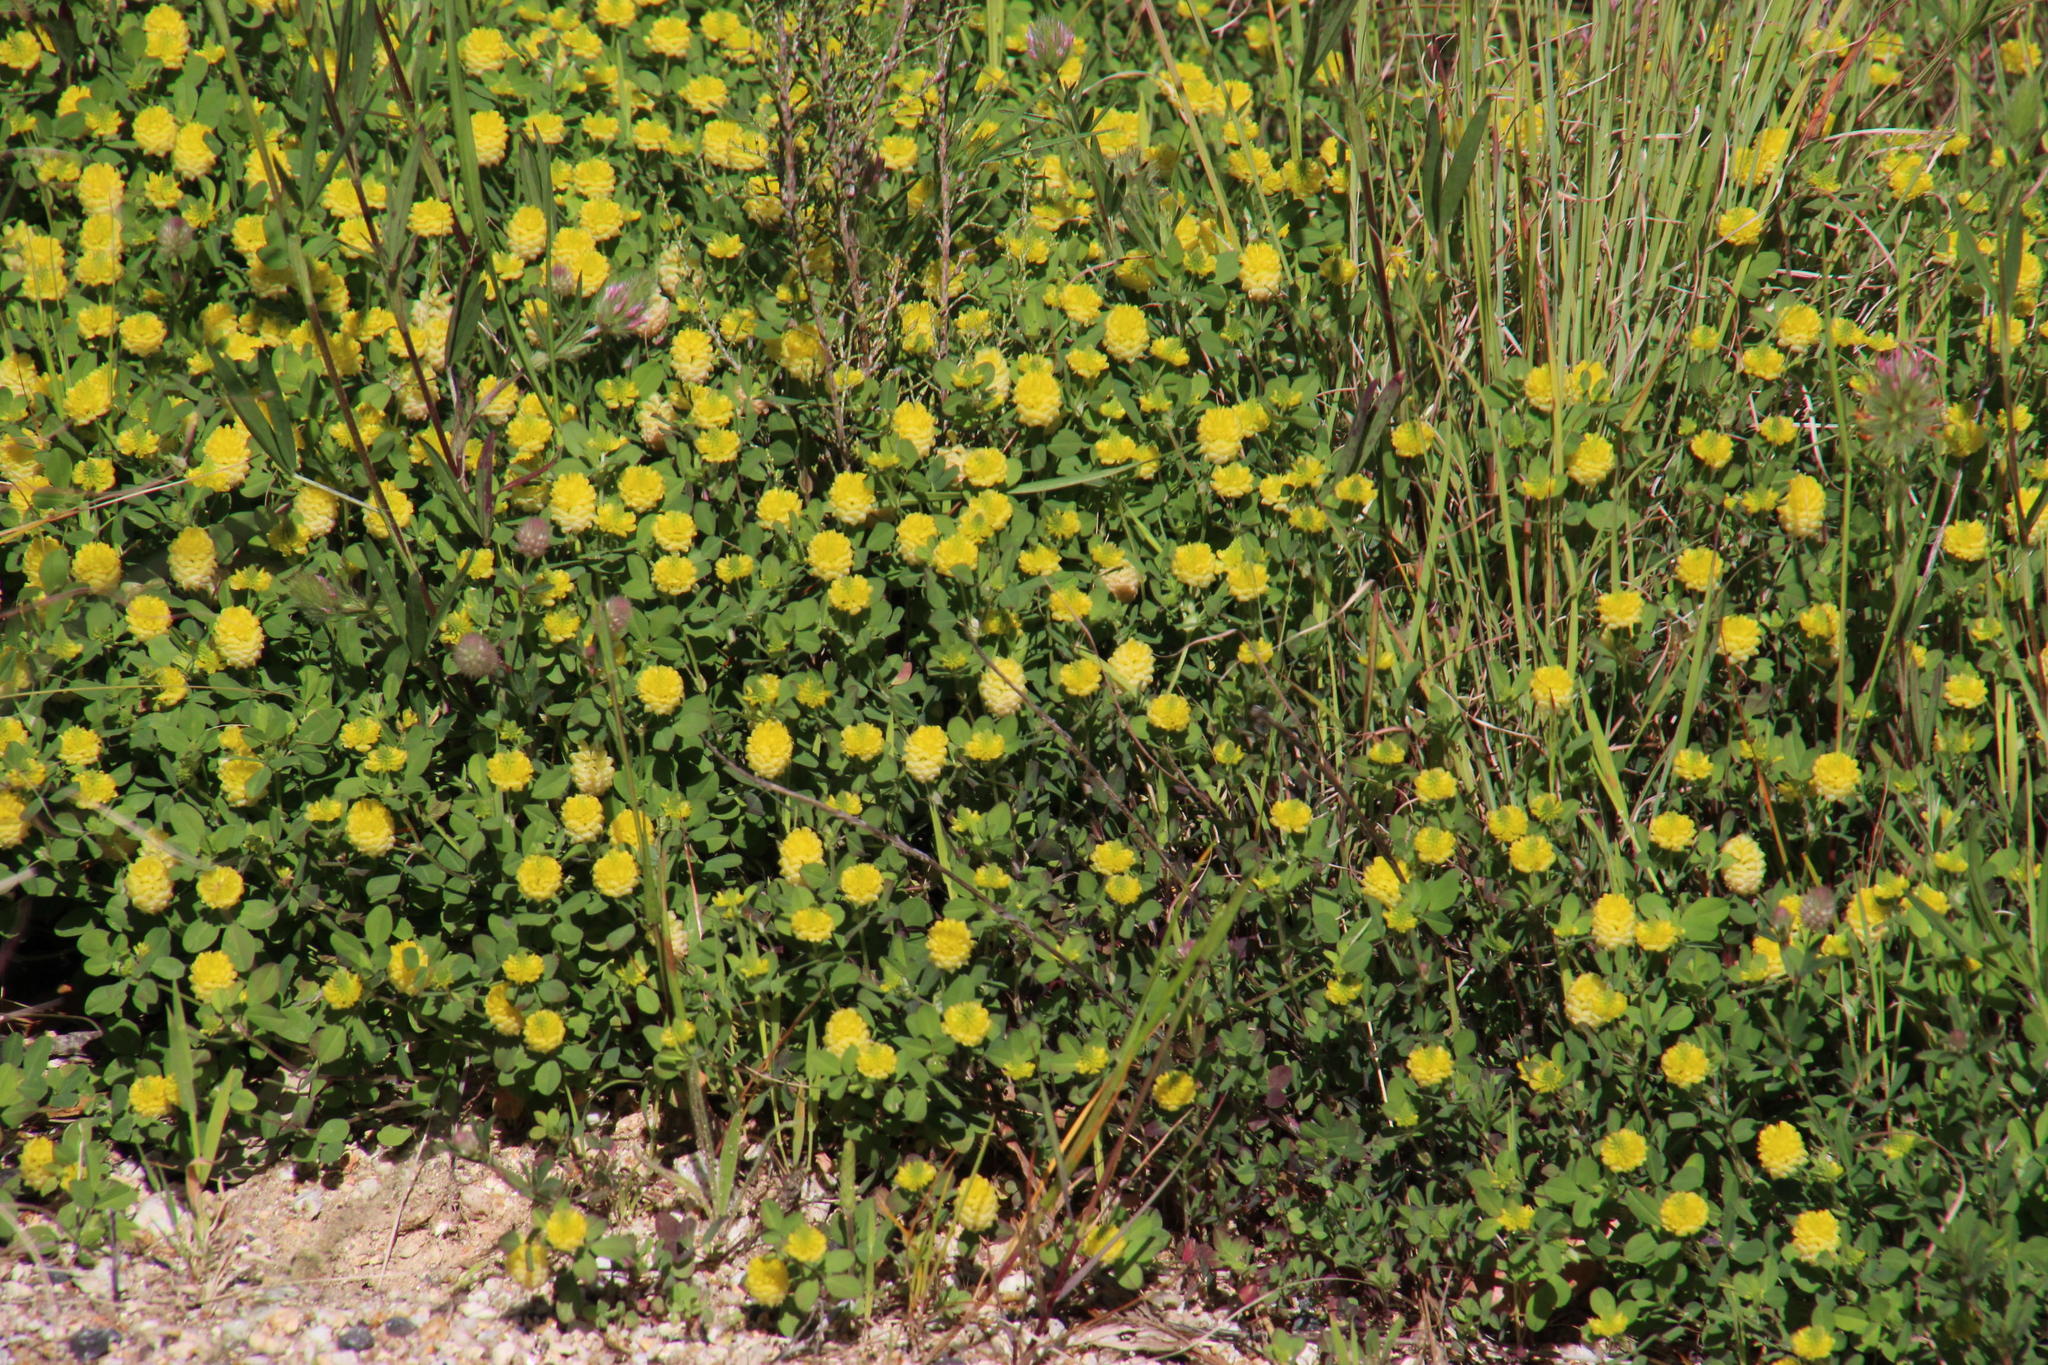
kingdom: Plantae
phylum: Tracheophyta
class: Magnoliopsida
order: Fabales
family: Fabaceae
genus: Trifolium
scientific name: Trifolium campestre
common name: Field clover
